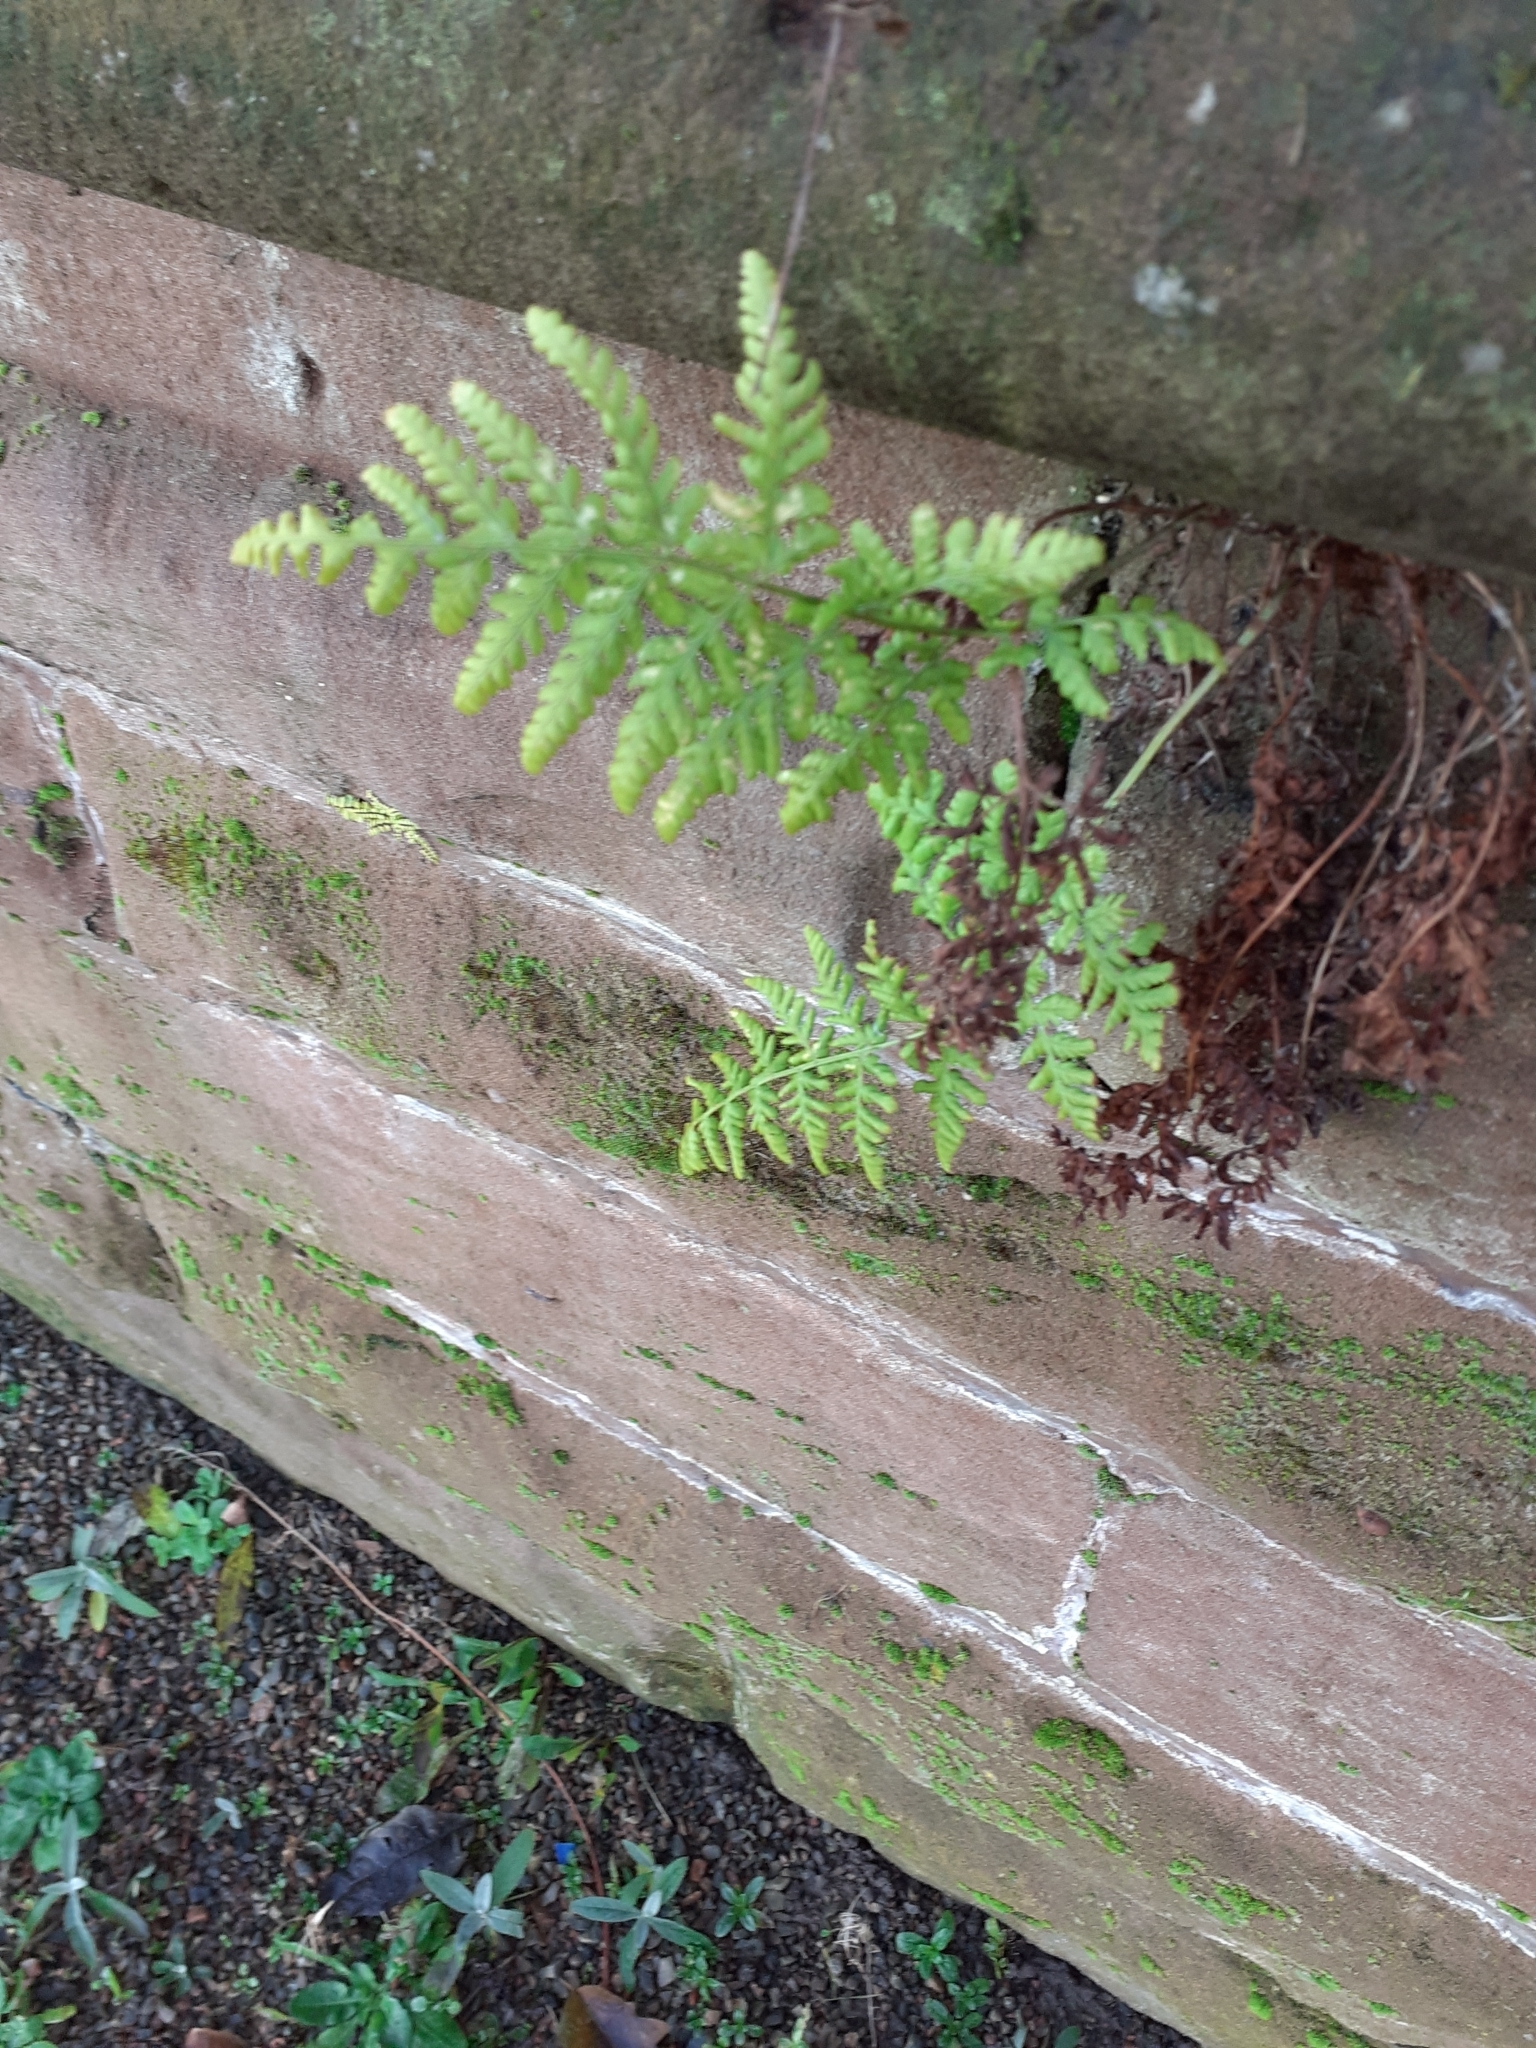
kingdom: Plantae
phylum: Tracheophyta
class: Polypodiopsida
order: Polypodiales
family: Dryopteridaceae
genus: Dryopteris
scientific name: Dryopteris dilatata
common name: Broad buckler-fern
